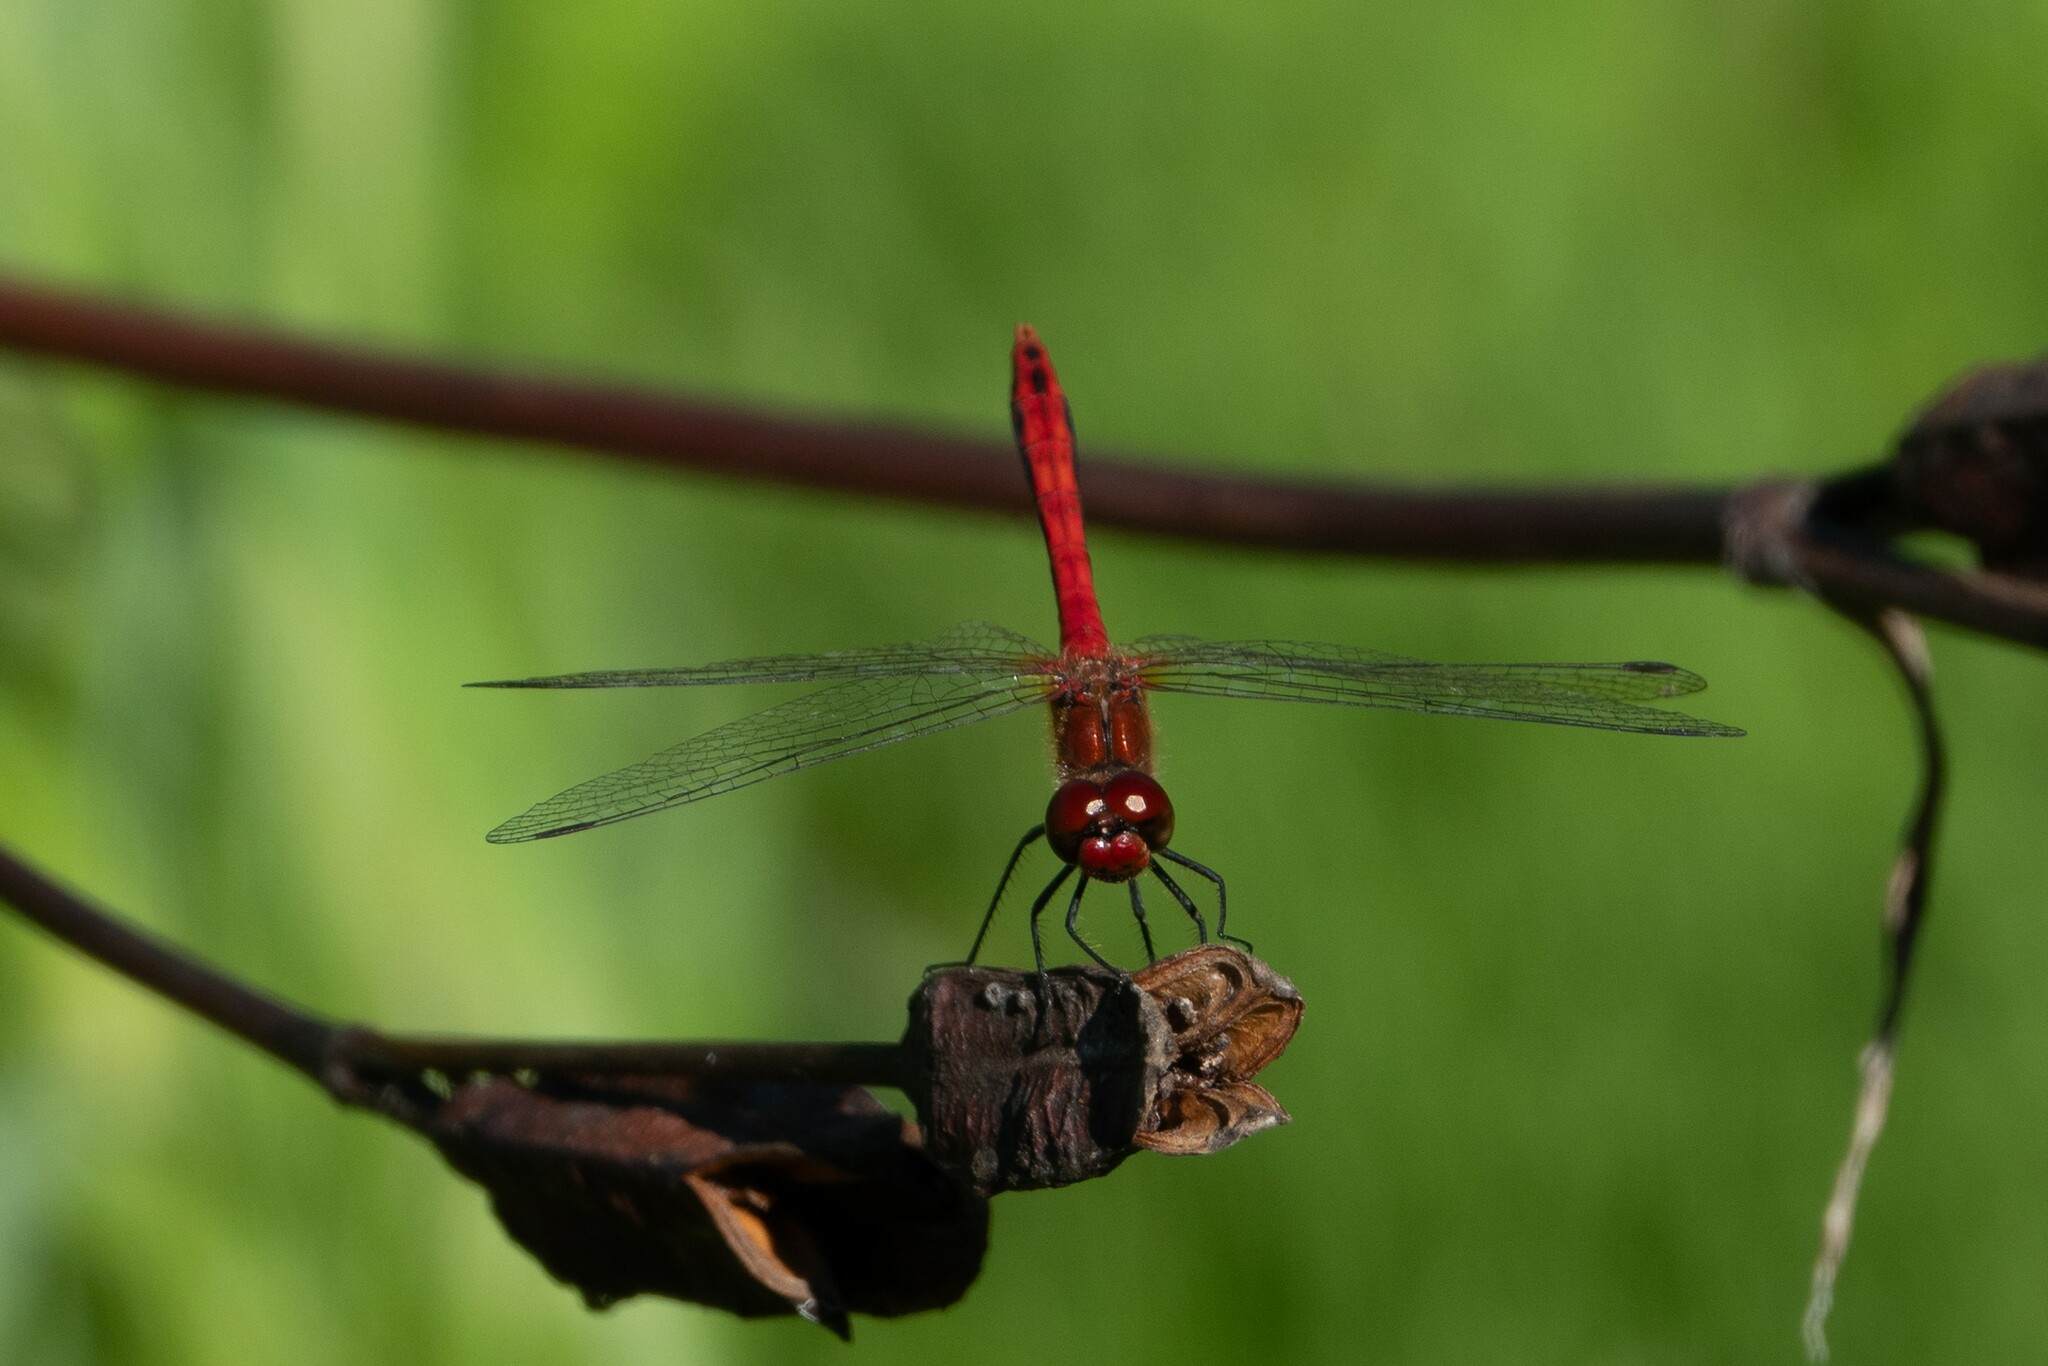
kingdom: Animalia
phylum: Arthropoda
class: Insecta
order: Odonata
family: Libellulidae
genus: Sympetrum
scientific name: Sympetrum sanguineum
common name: Ruddy darter
